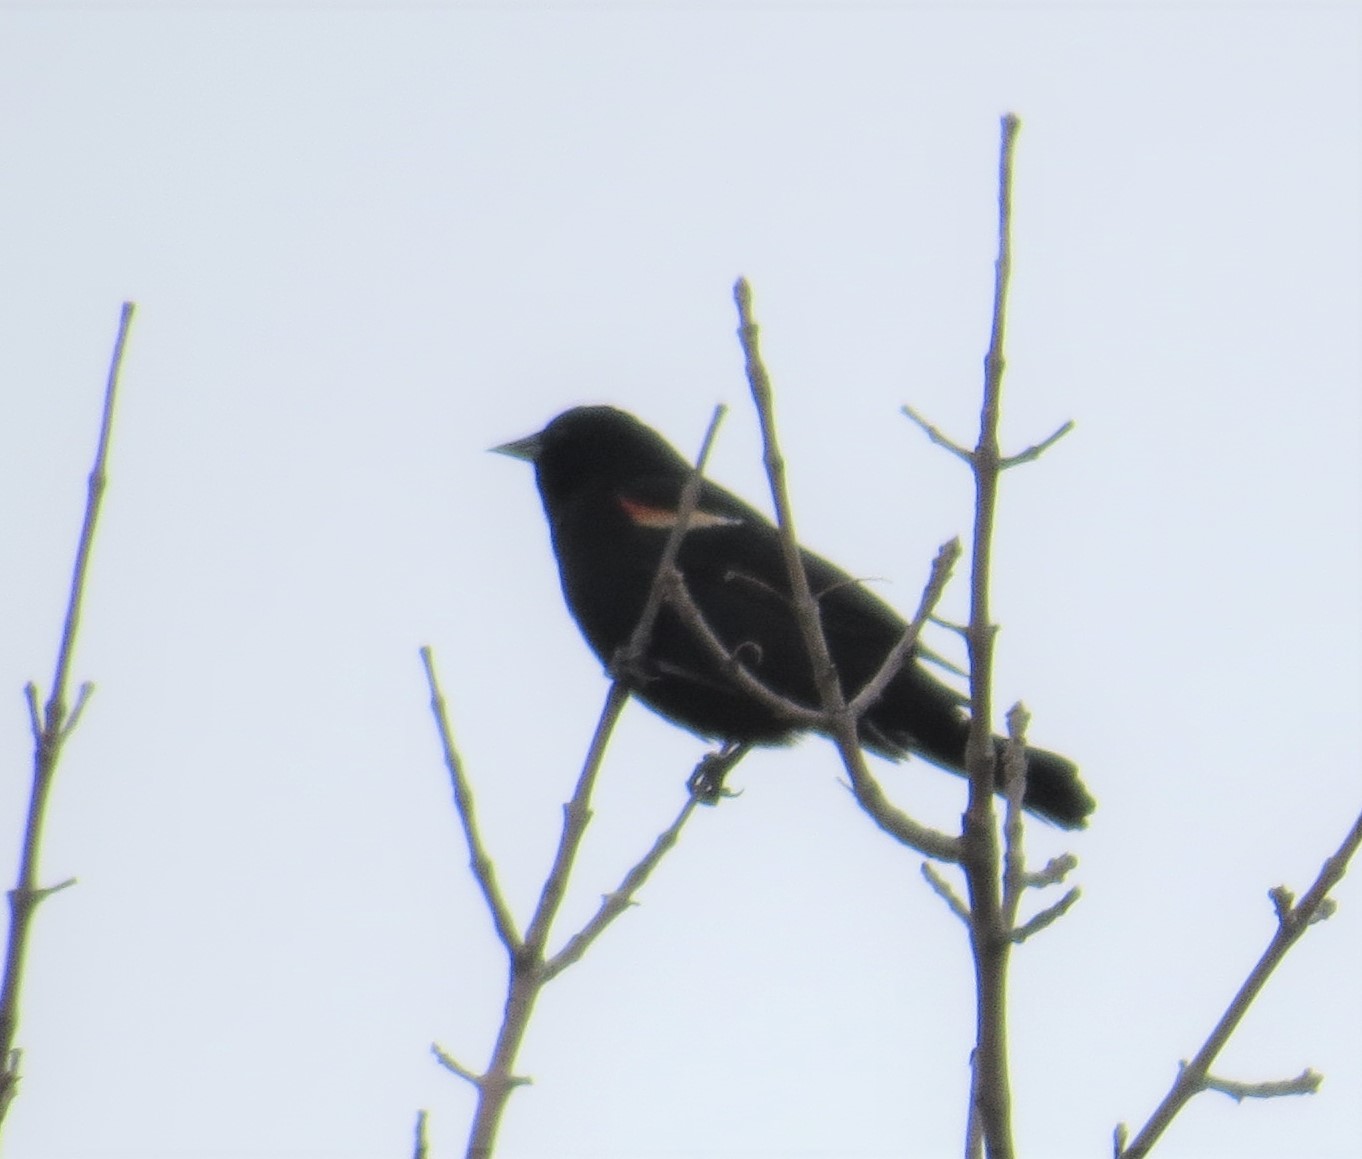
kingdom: Animalia
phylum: Chordata
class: Aves
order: Passeriformes
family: Icteridae
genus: Agelaius
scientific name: Agelaius phoeniceus
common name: Red-winged blackbird
